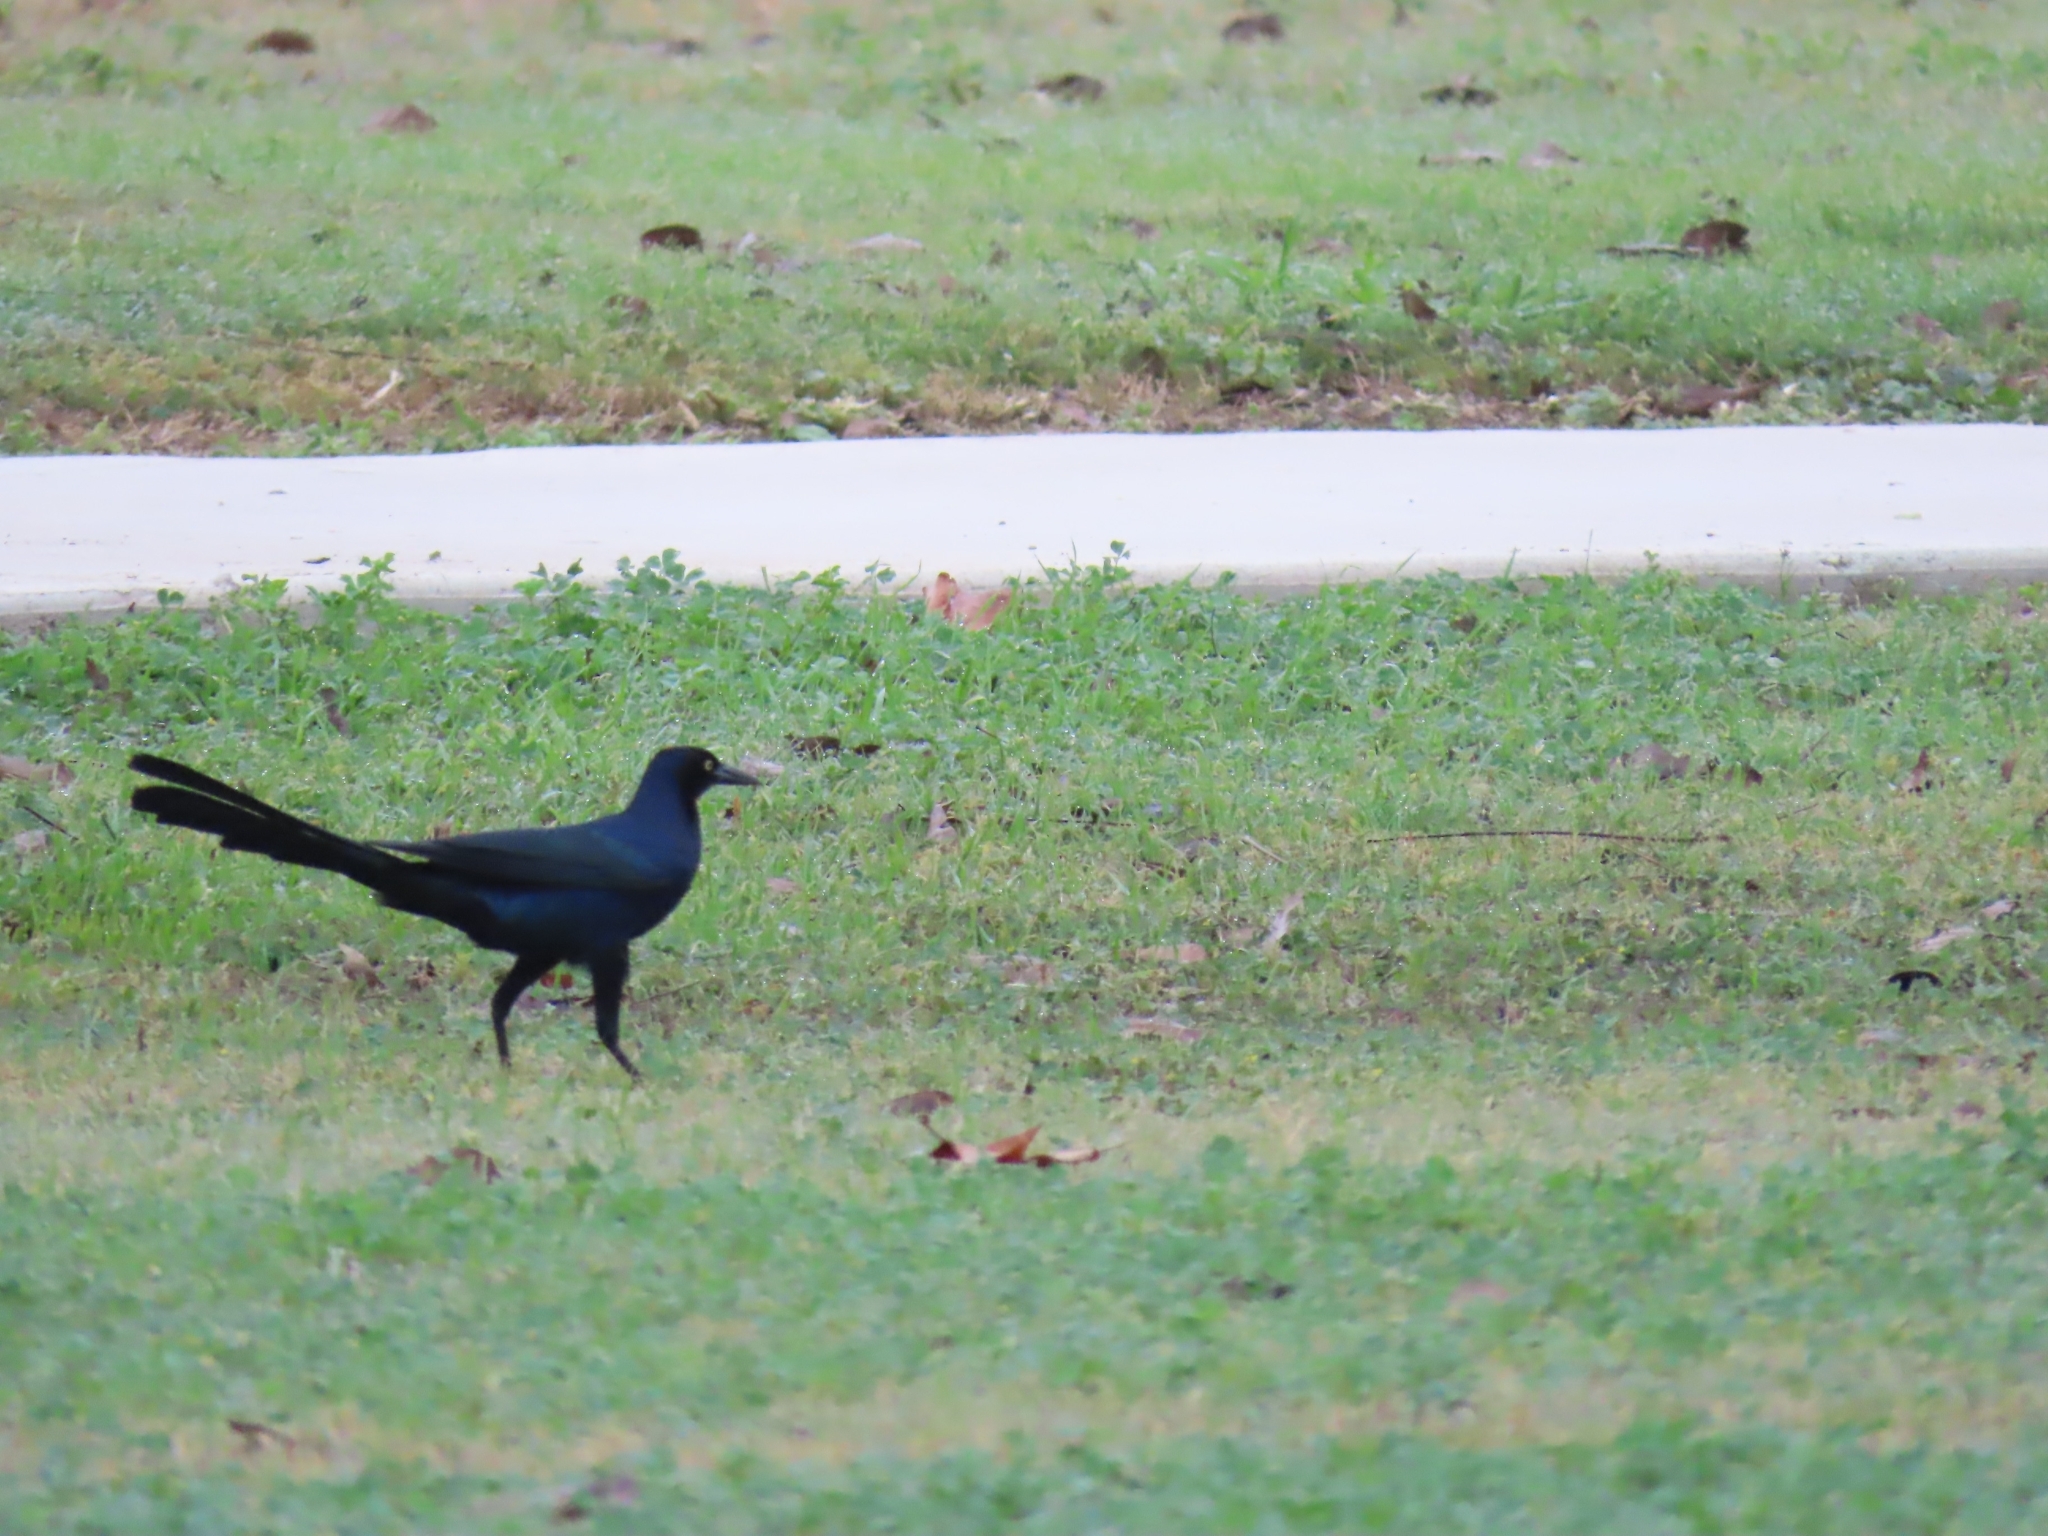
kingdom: Animalia
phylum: Chordata
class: Aves
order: Passeriformes
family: Icteridae
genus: Quiscalus
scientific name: Quiscalus mexicanus
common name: Great-tailed grackle
